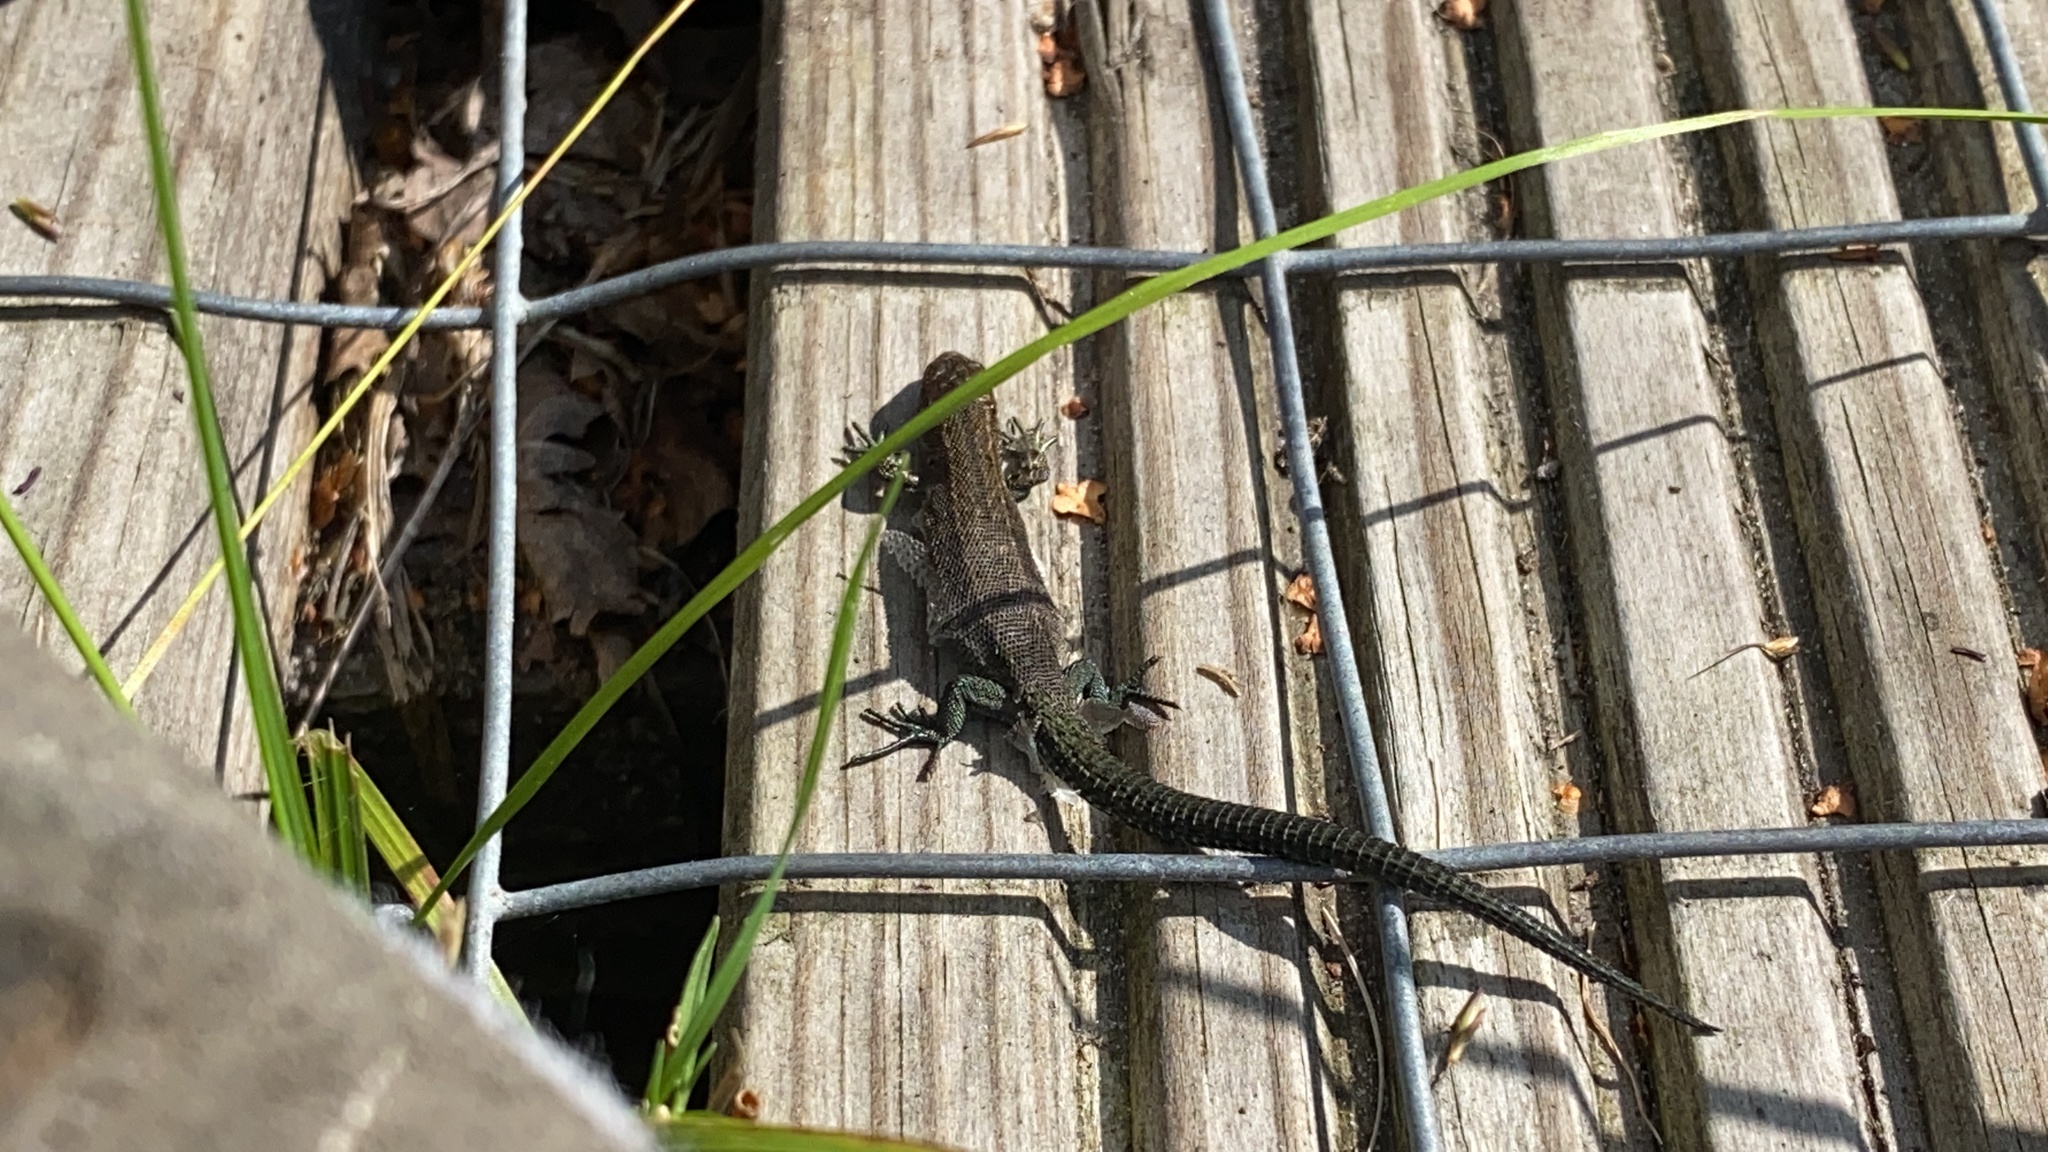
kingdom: Animalia
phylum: Chordata
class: Squamata
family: Lacertidae
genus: Zootoca
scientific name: Zootoca vivipara
